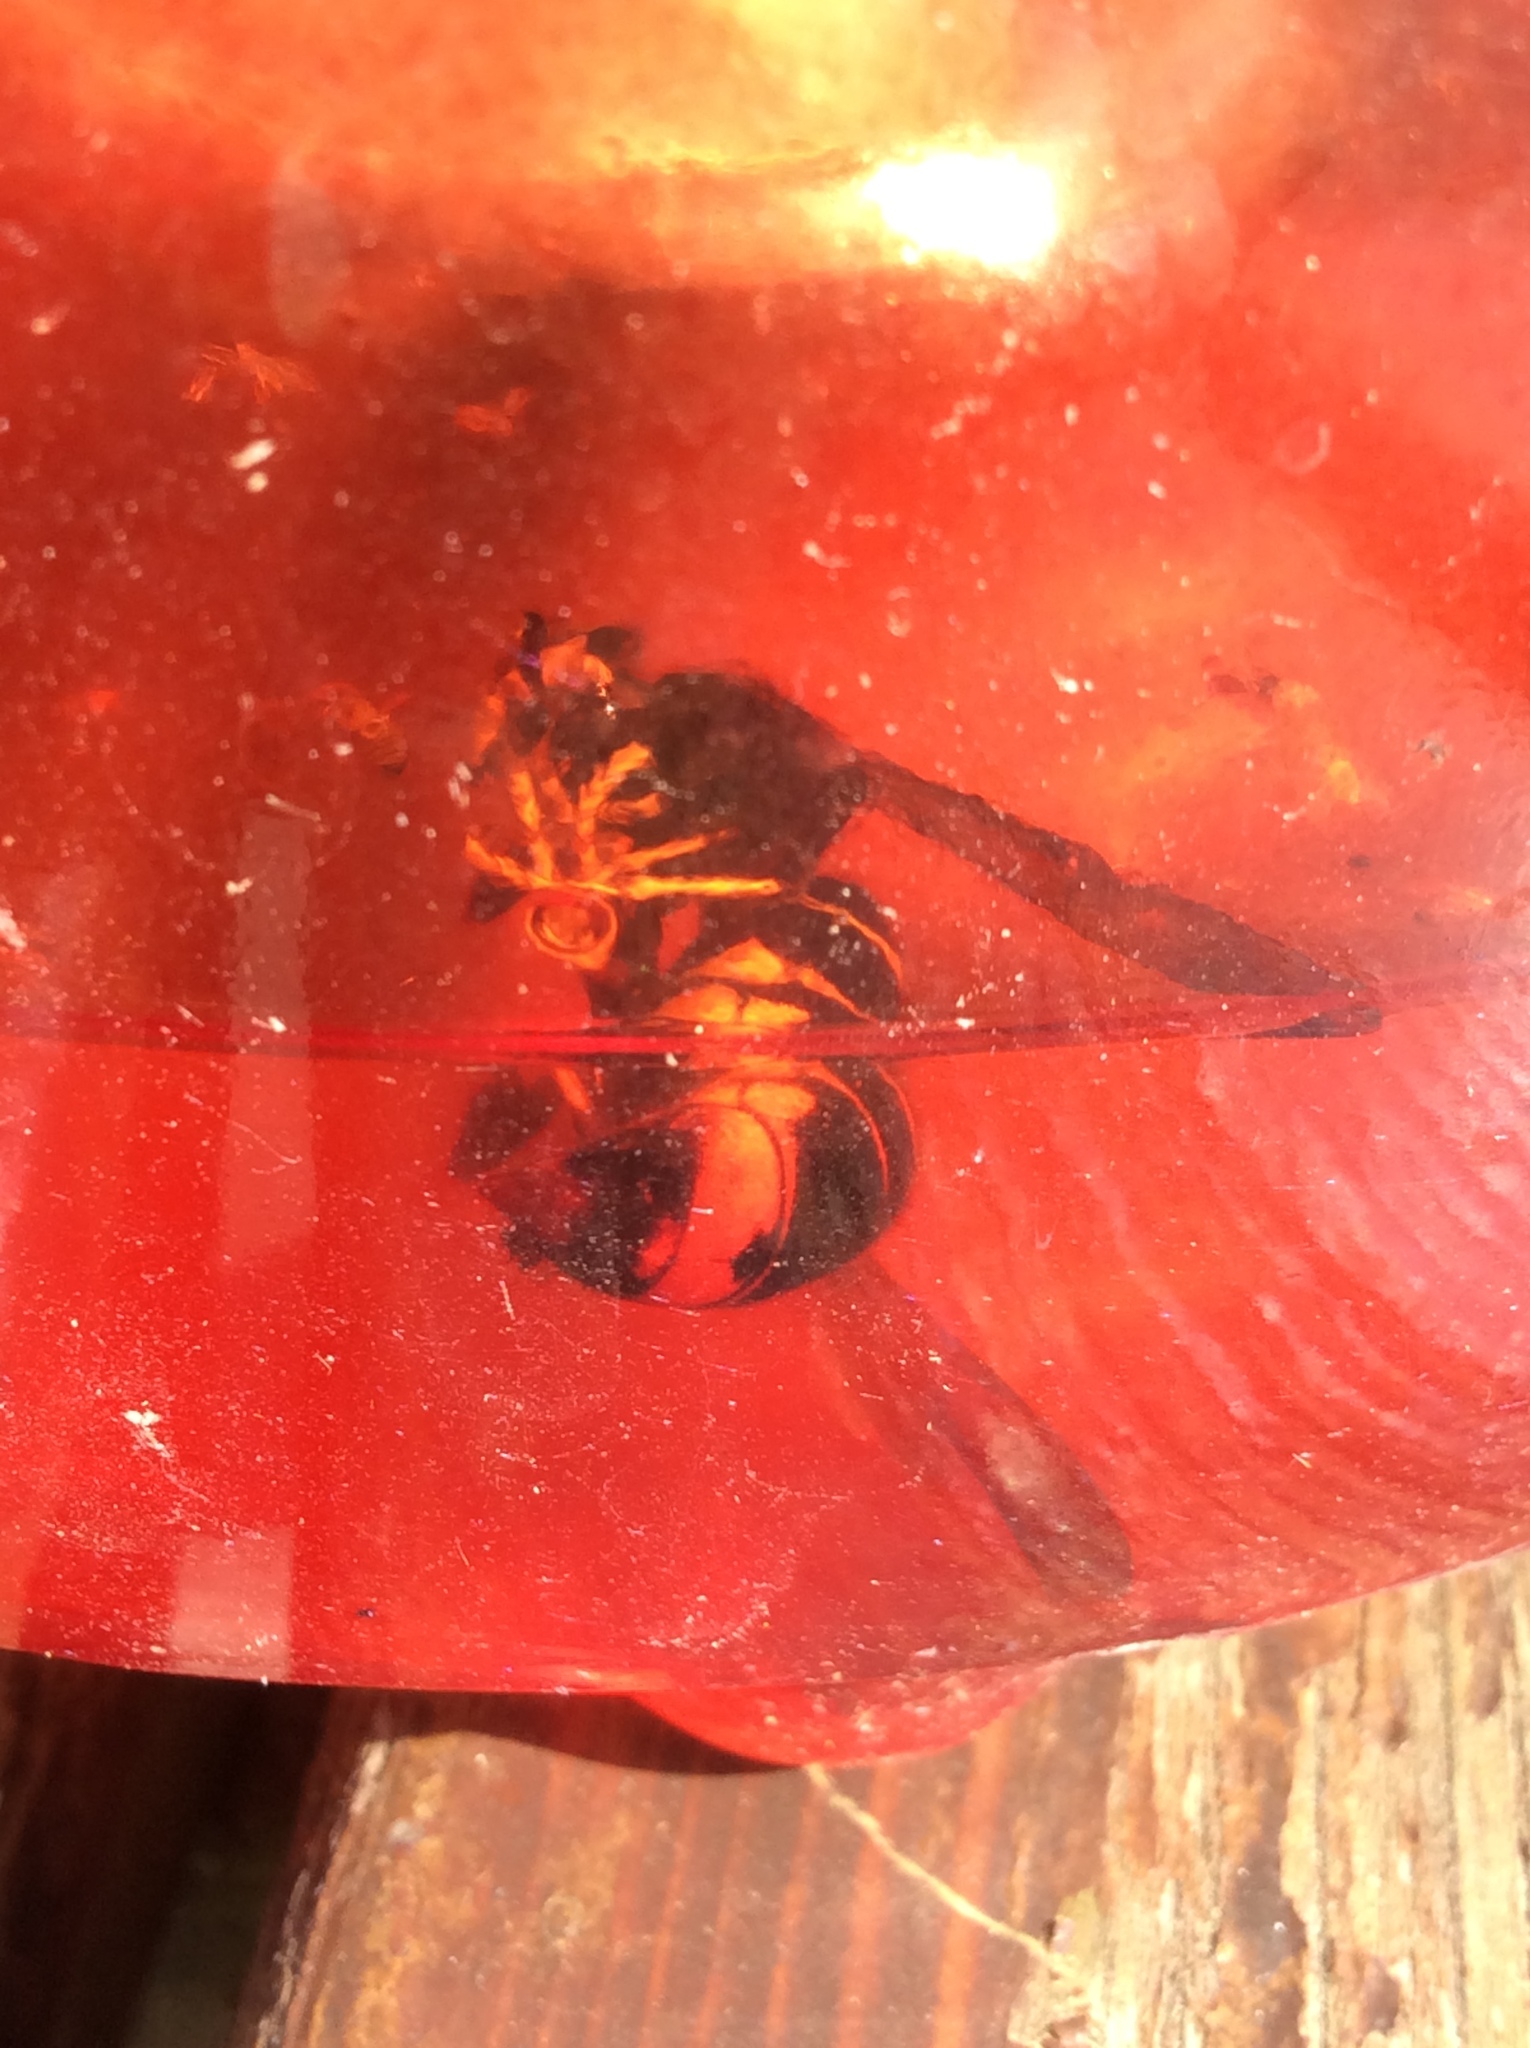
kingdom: Animalia
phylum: Arthropoda
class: Insecta
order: Hymenoptera
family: Vespidae
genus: Vespa
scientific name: Vespa velutina
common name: Asian hornet
